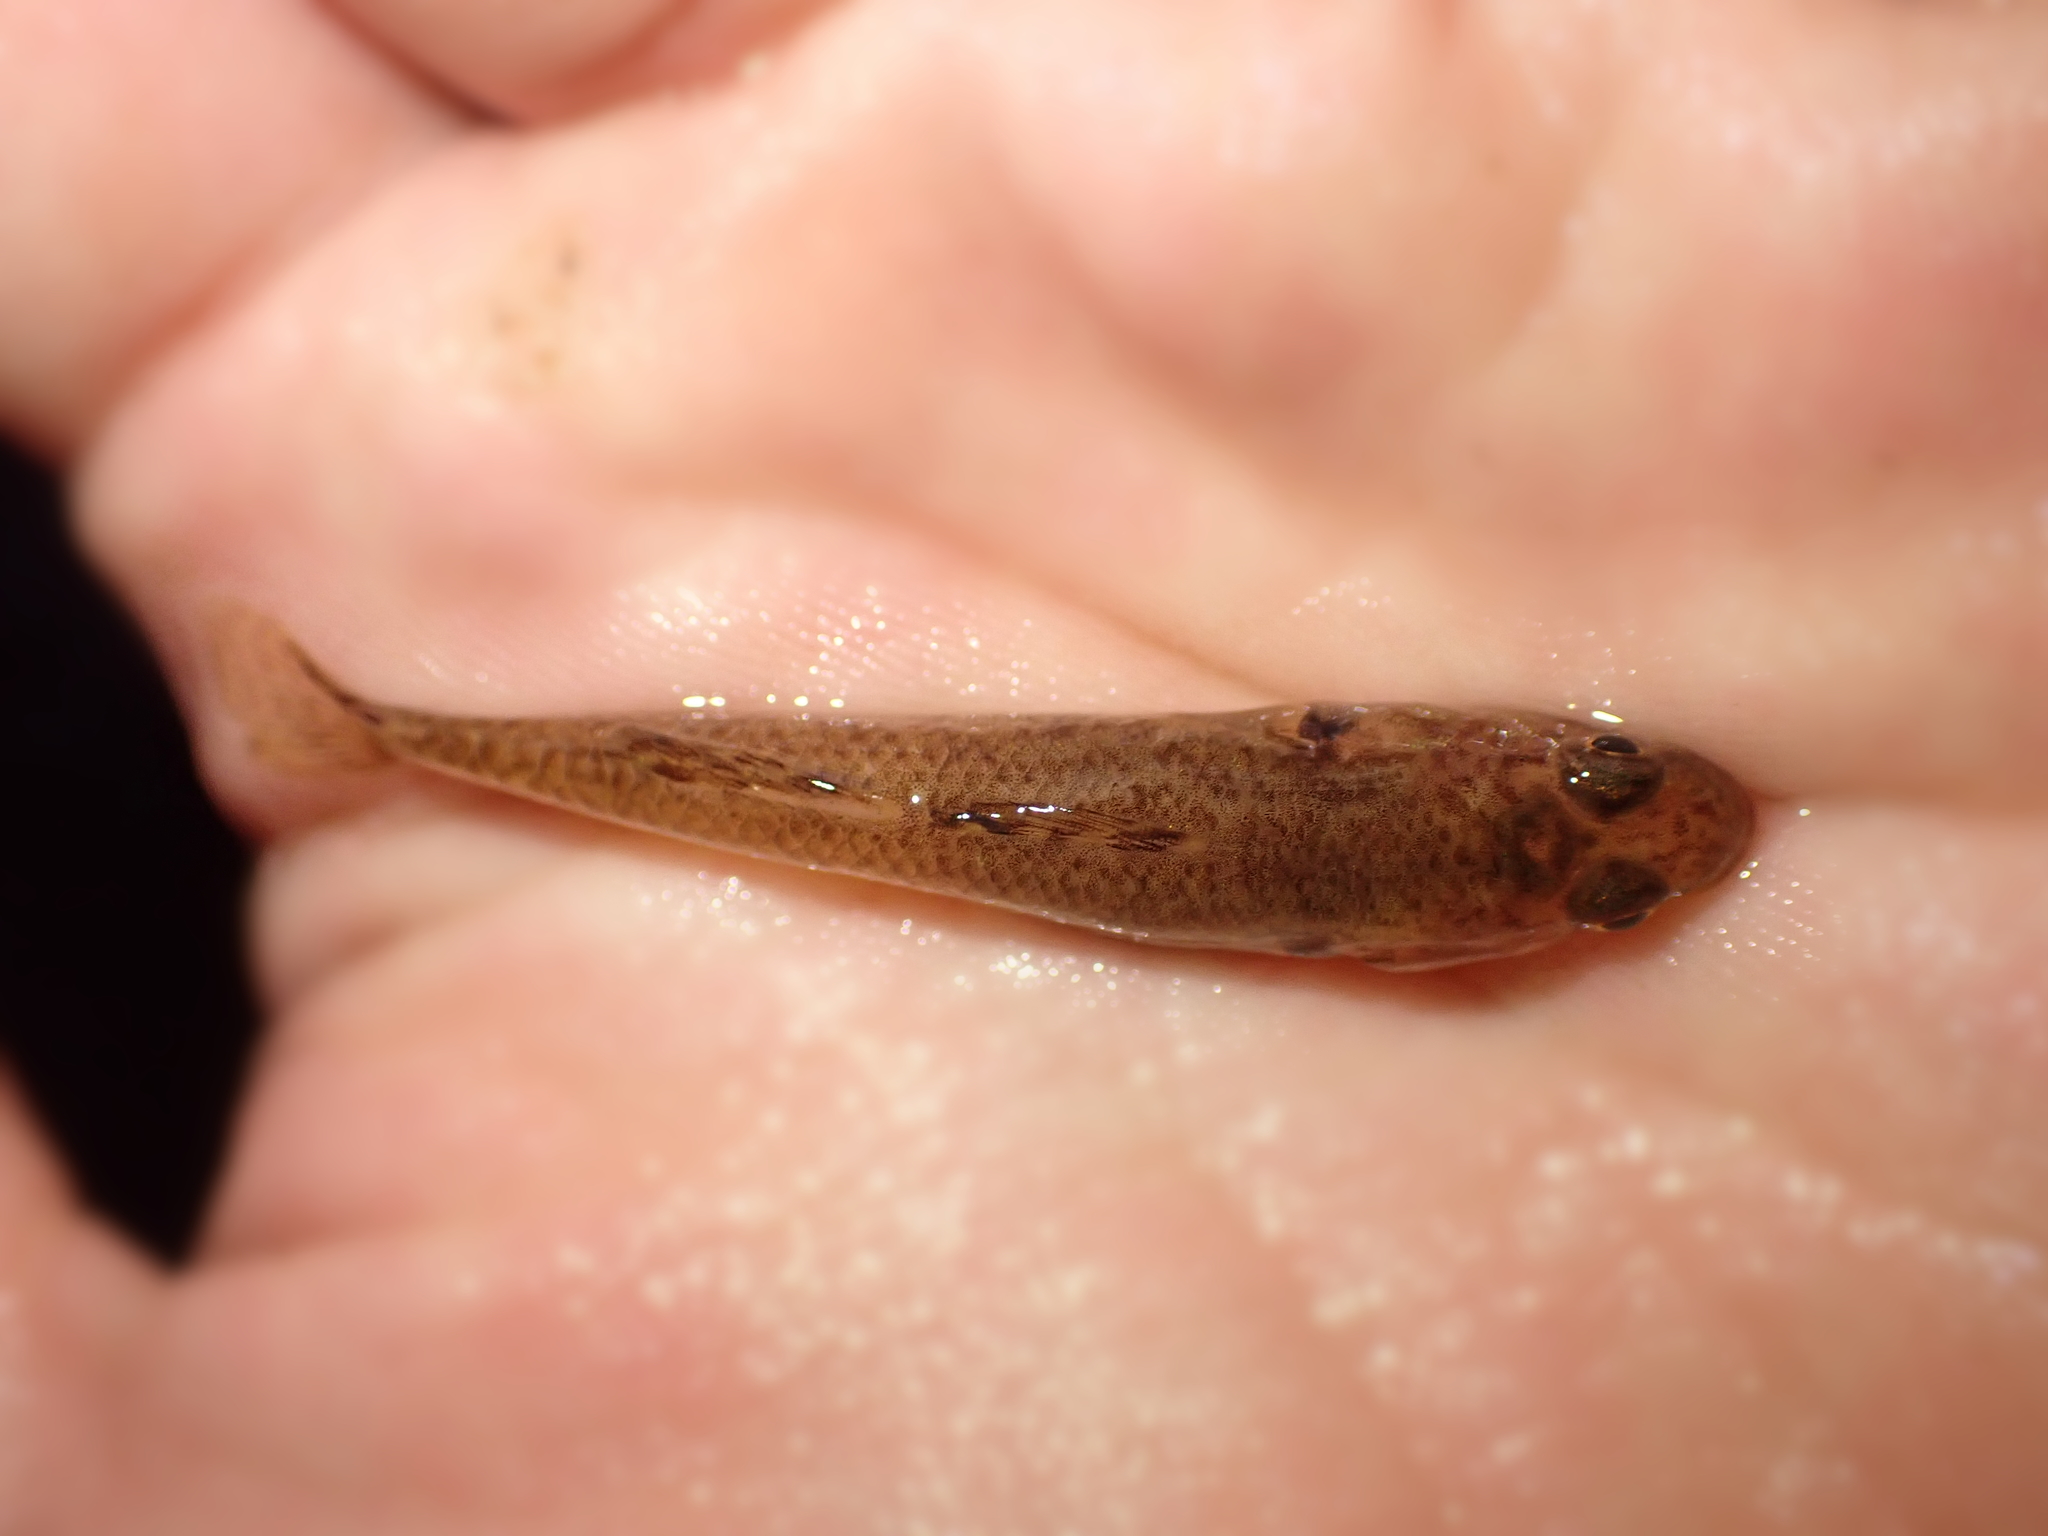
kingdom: Animalia
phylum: Chordata
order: Perciformes
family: Eleotridae
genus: Gobiomorphus
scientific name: Gobiomorphus cotidianus
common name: Common bully
